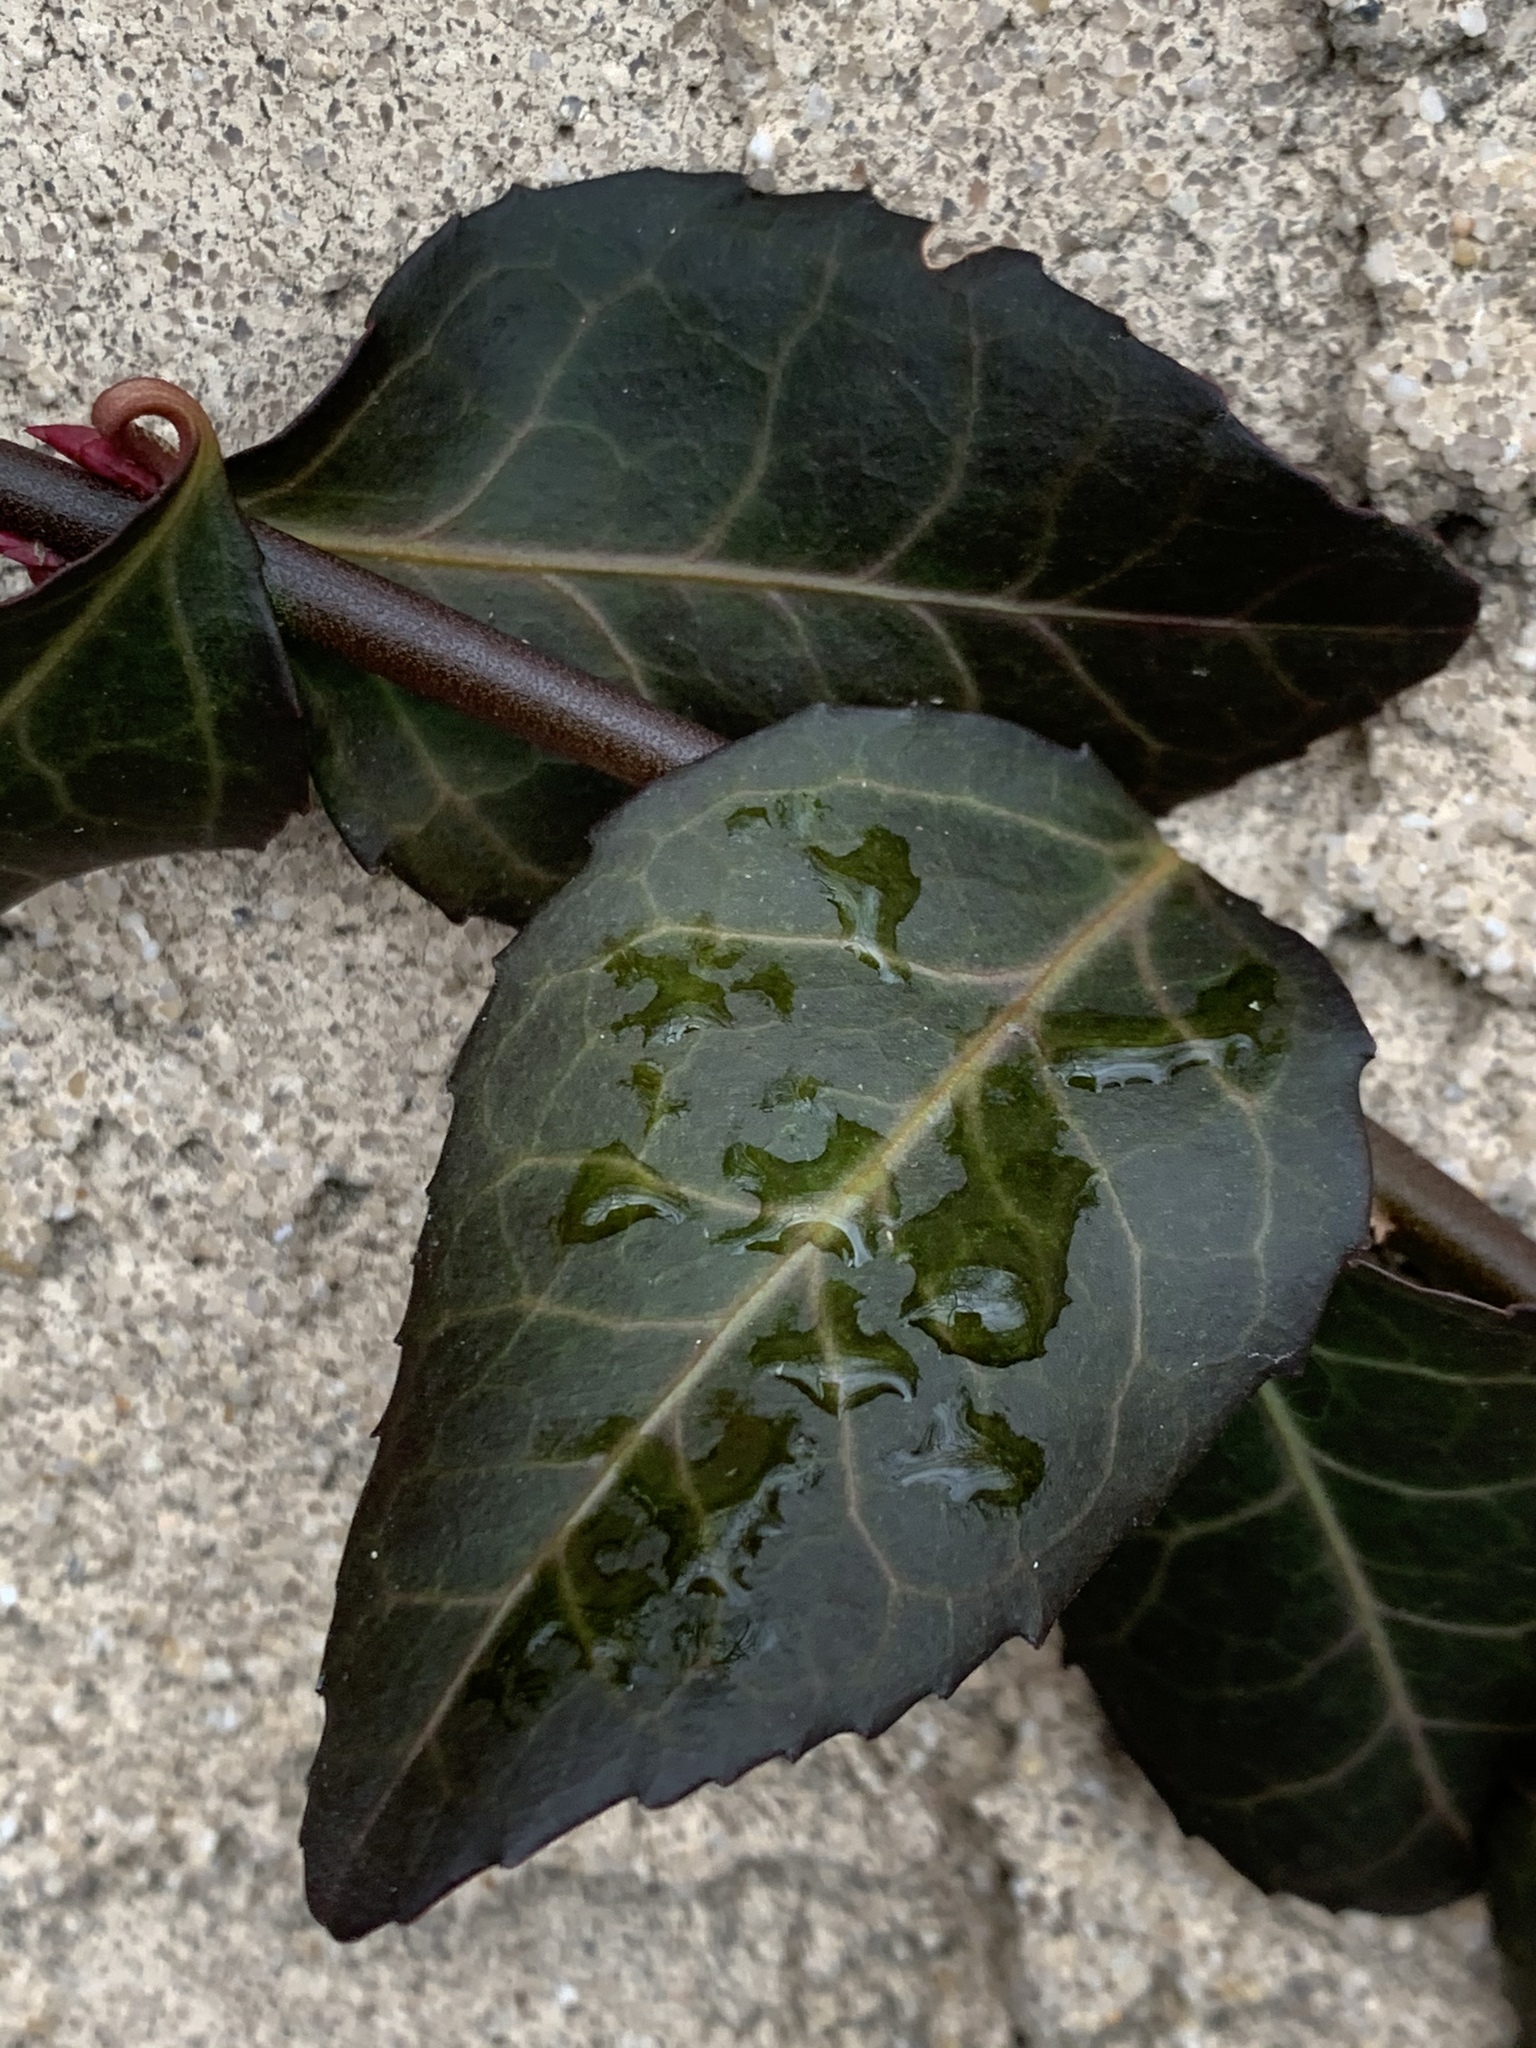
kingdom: Plantae
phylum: Tracheophyta
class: Magnoliopsida
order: Celastrales
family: Celastraceae
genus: Euonymus
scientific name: Euonymus fortunei
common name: Climbing euonymus
